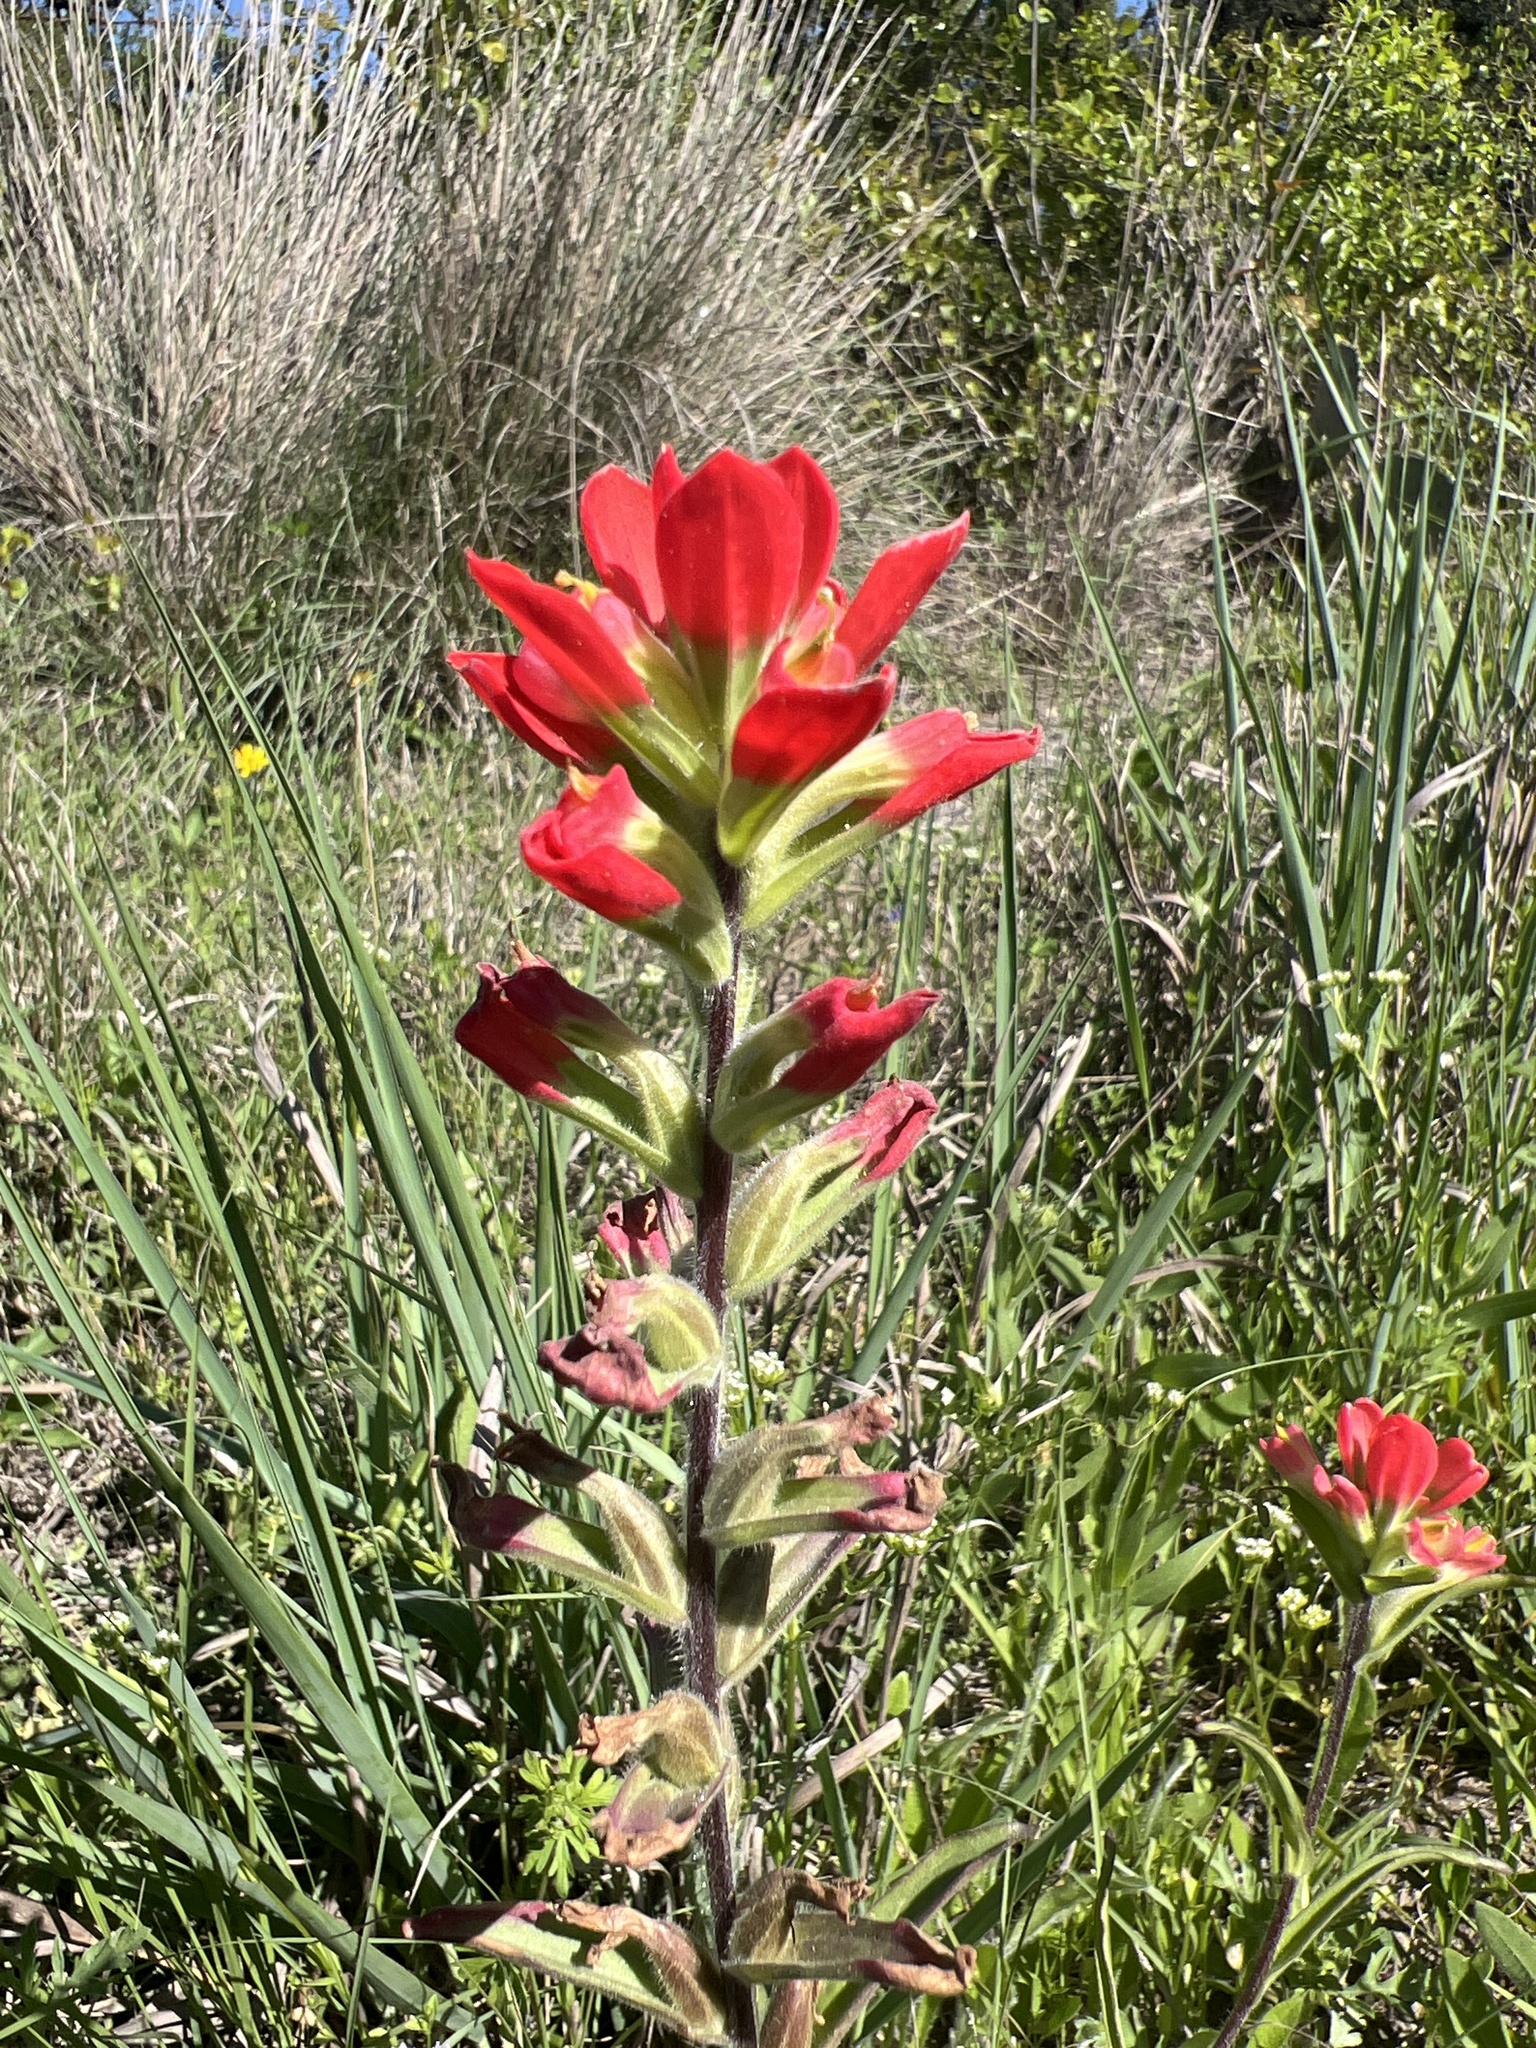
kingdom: Plantae
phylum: Tracheophyta
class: Magnoliopsida
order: Lamiales
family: Orobanchaceae
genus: Castilleja
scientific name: Castilleja indivisa
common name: Texas paintbrush
